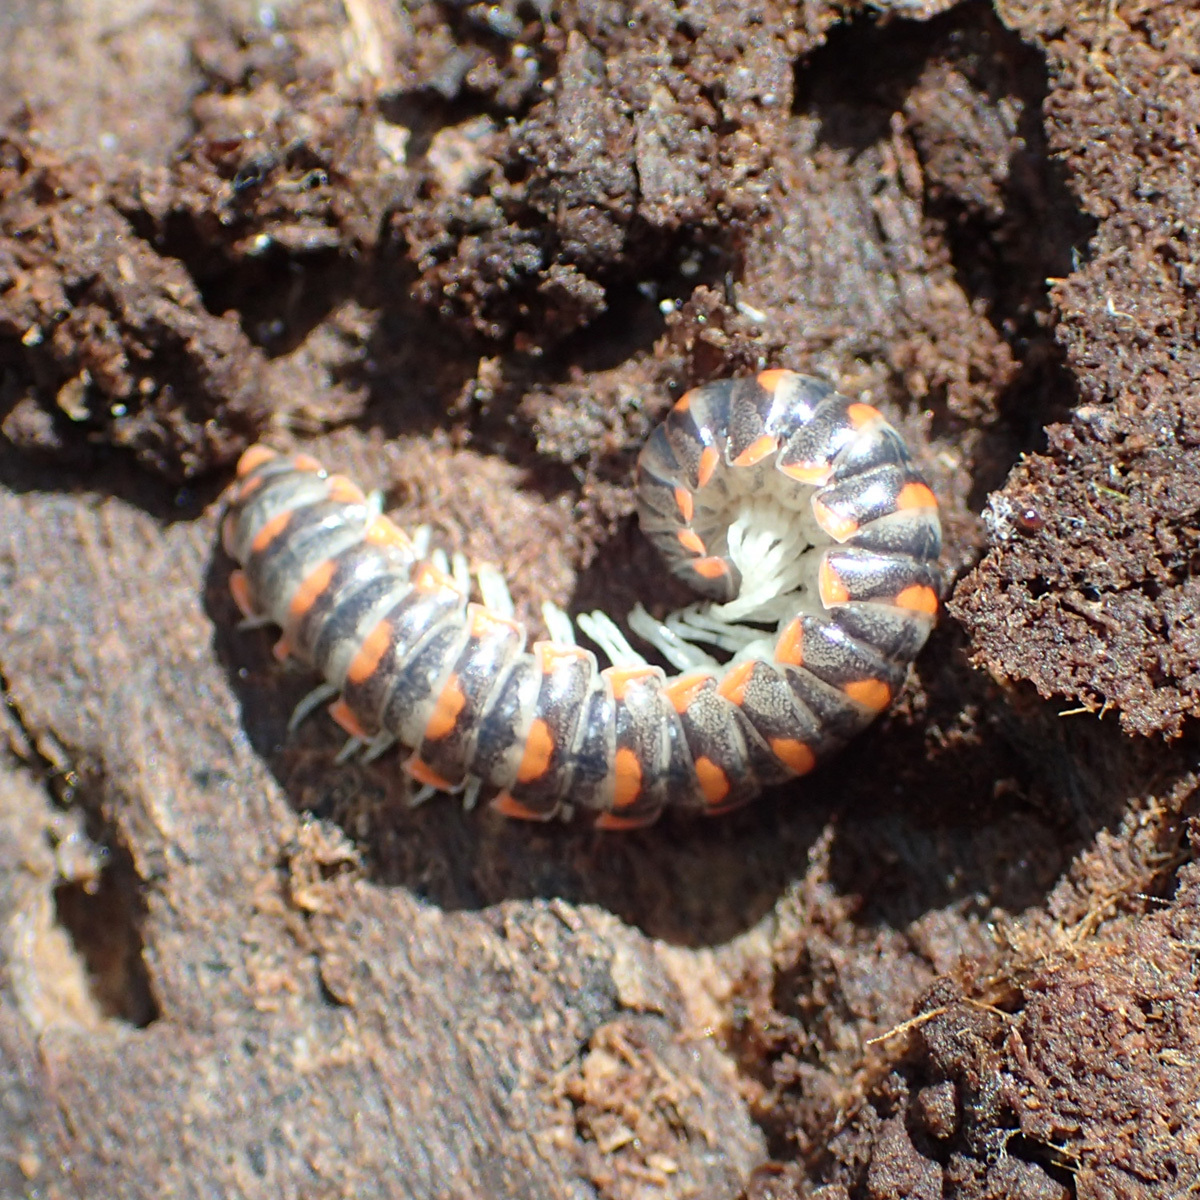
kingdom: Animalia
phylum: Arthropoda
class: Diplopoda
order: Polydesmida
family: Xystodesmidae
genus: Euryurus
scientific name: Euryurus leachii
